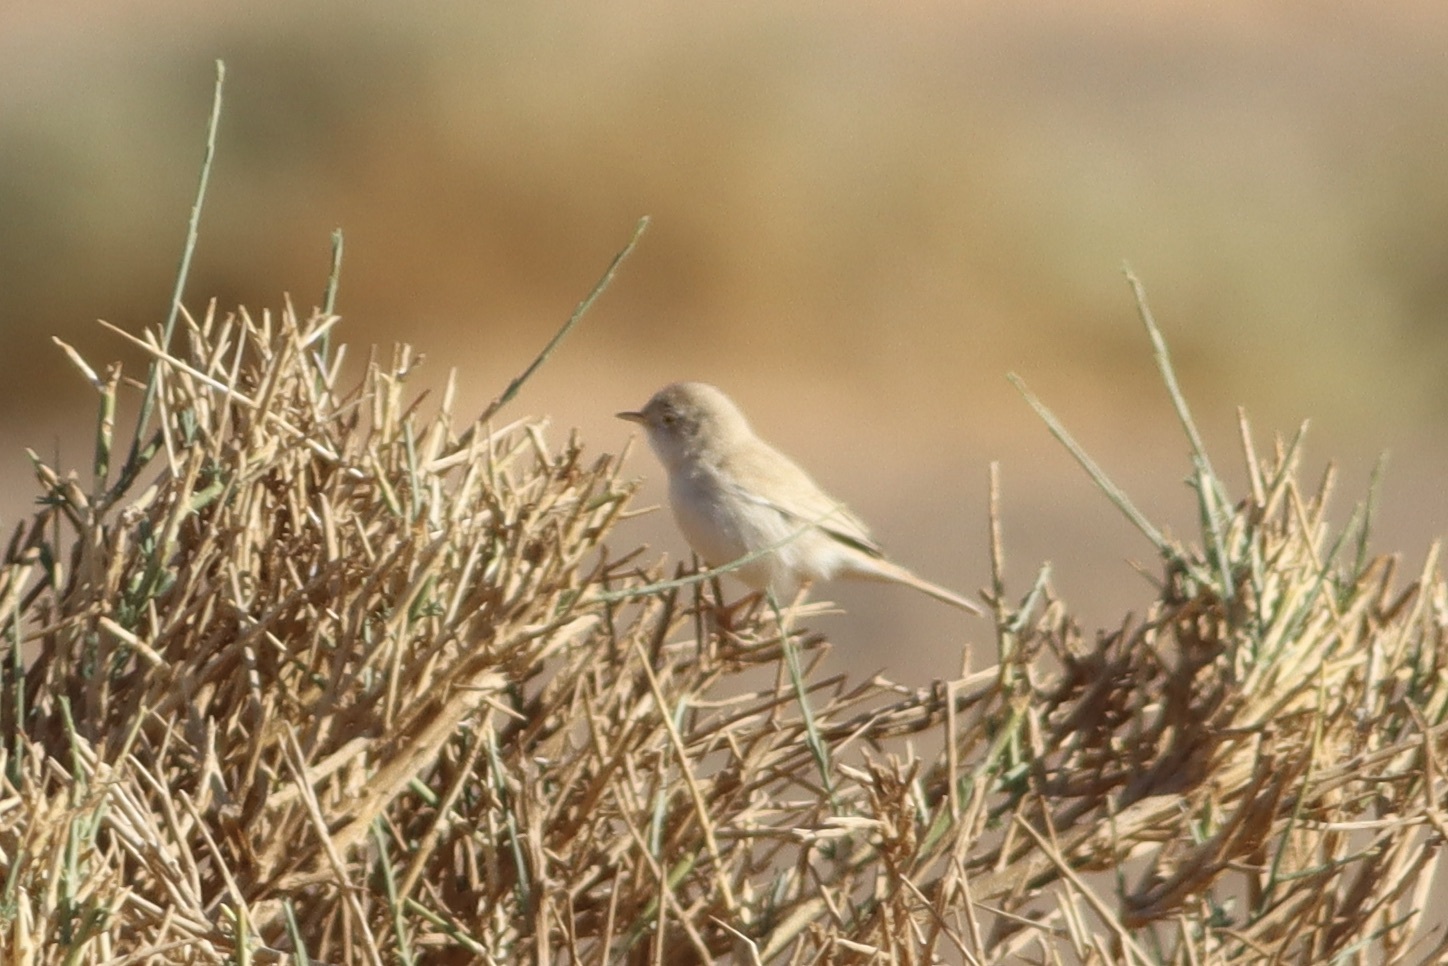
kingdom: Animalia
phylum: Chordata
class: Aves
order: Passeriformes
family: Sylviidae
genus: Sylvia
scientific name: Sylvia deserti
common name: African desert warbler
